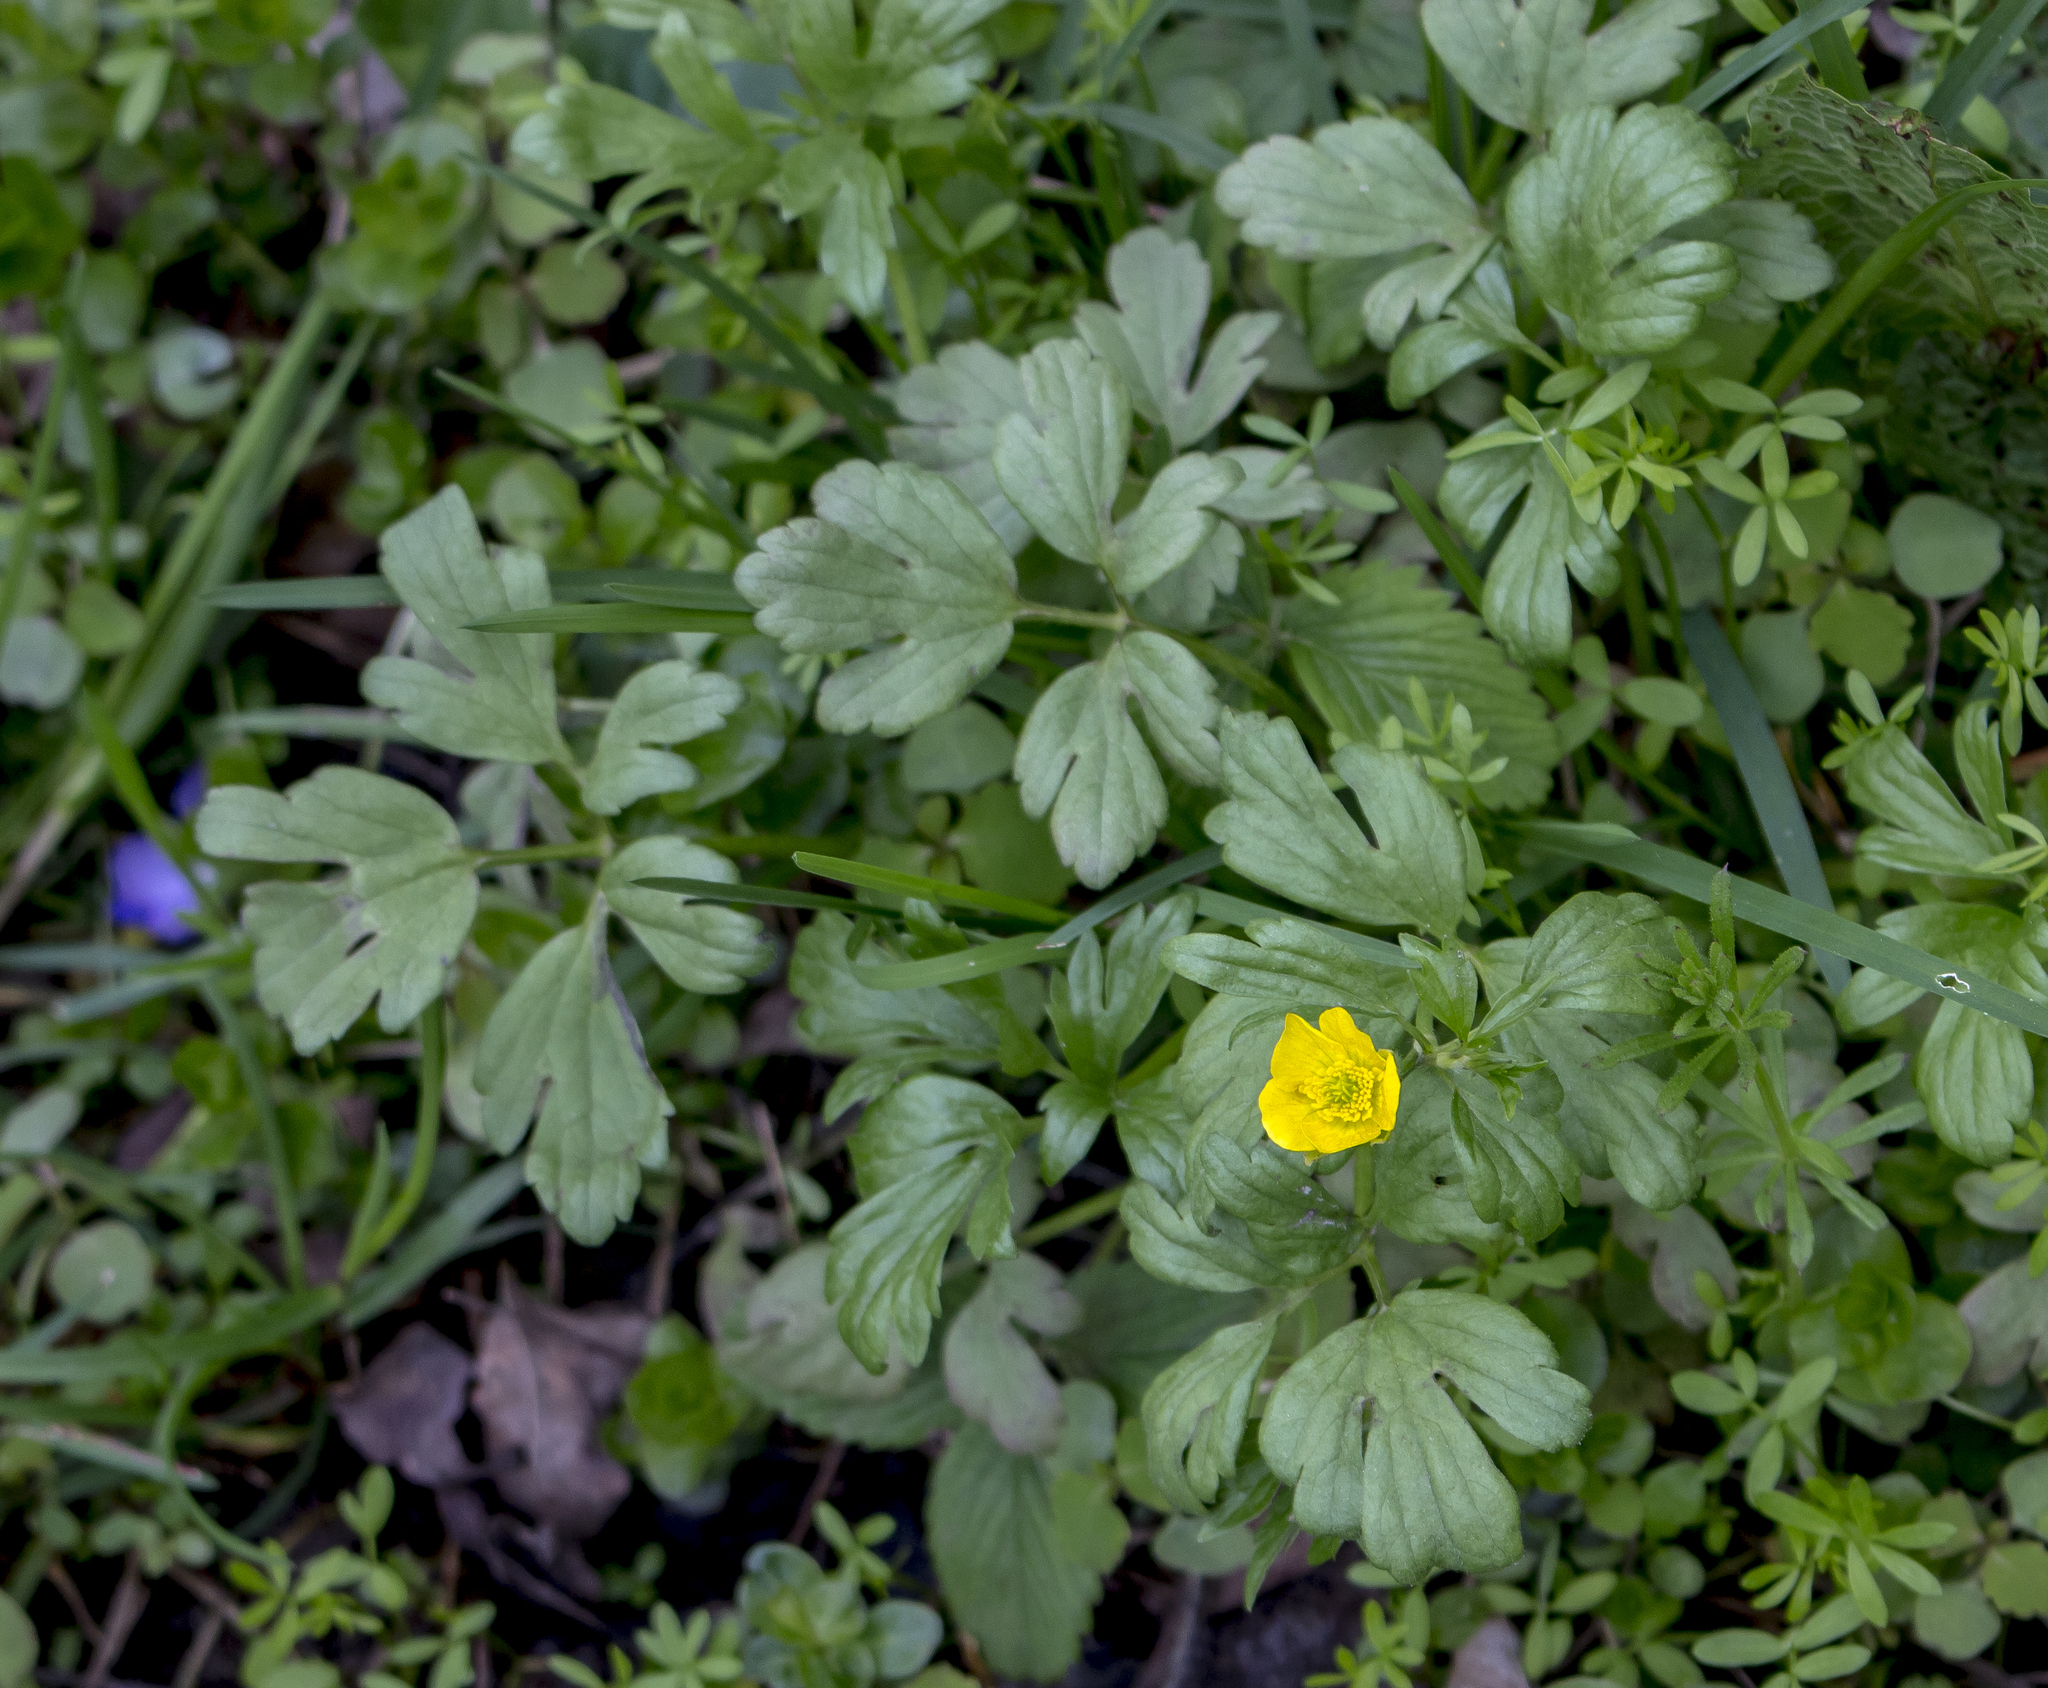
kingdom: Plantae
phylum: Tracheophyta
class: Magnoliopsida
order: Ranunculales
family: Ranunculaceae
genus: Ranunculus
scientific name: Ranunculus hispidus
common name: Bristly buttercup
